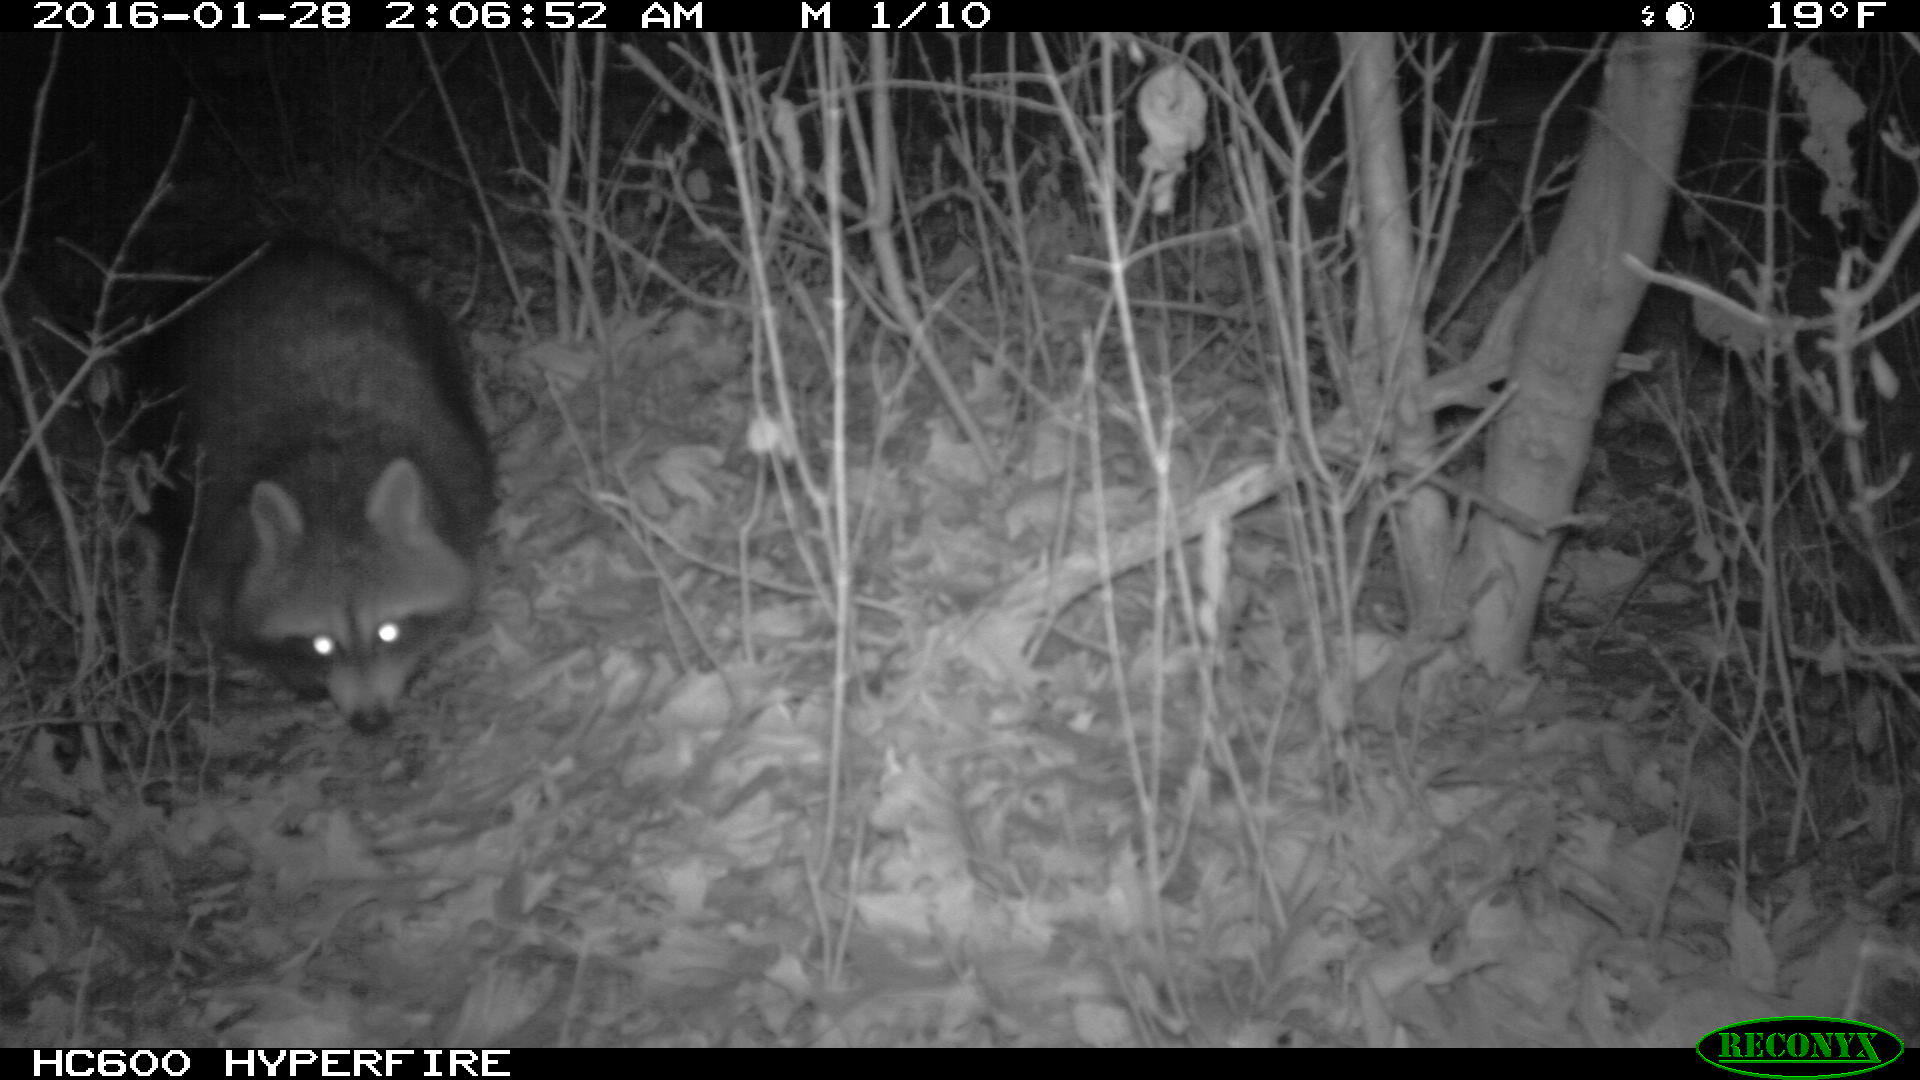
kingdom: Animalia
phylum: Chordata
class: Mammalia
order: Carnivora
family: Procyonidae
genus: Procyon
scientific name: Procyon lotor
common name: Raccoon
